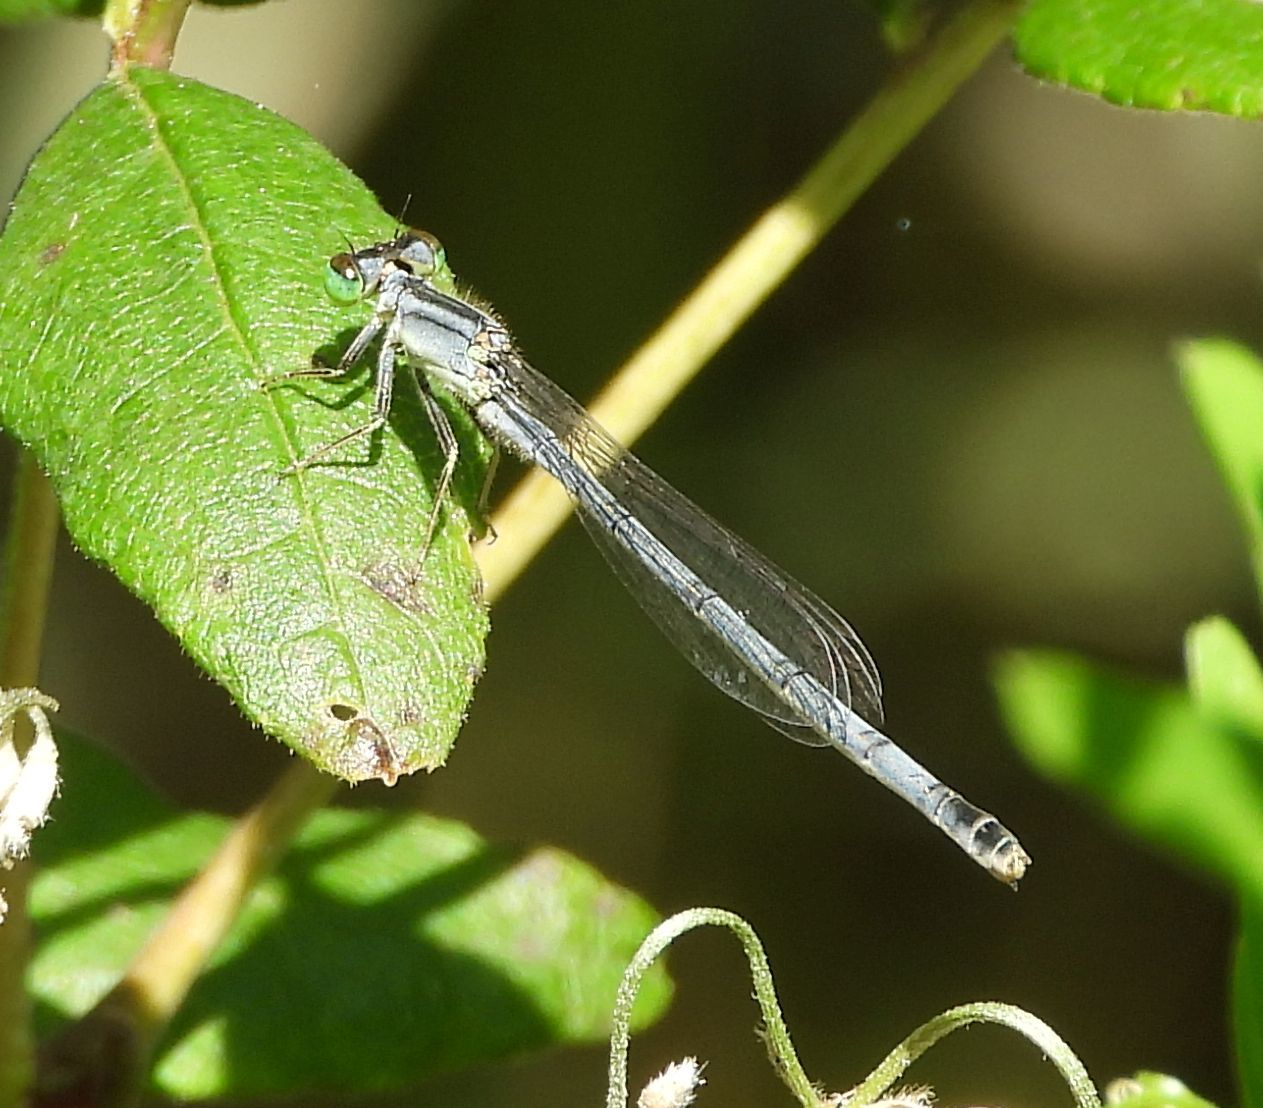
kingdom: Animalia
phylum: Arthropoda
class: Insecta
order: Odonata
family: Coenagrionidae
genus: Ischnura
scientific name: Ischnura verticalis
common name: Eastern forktail
